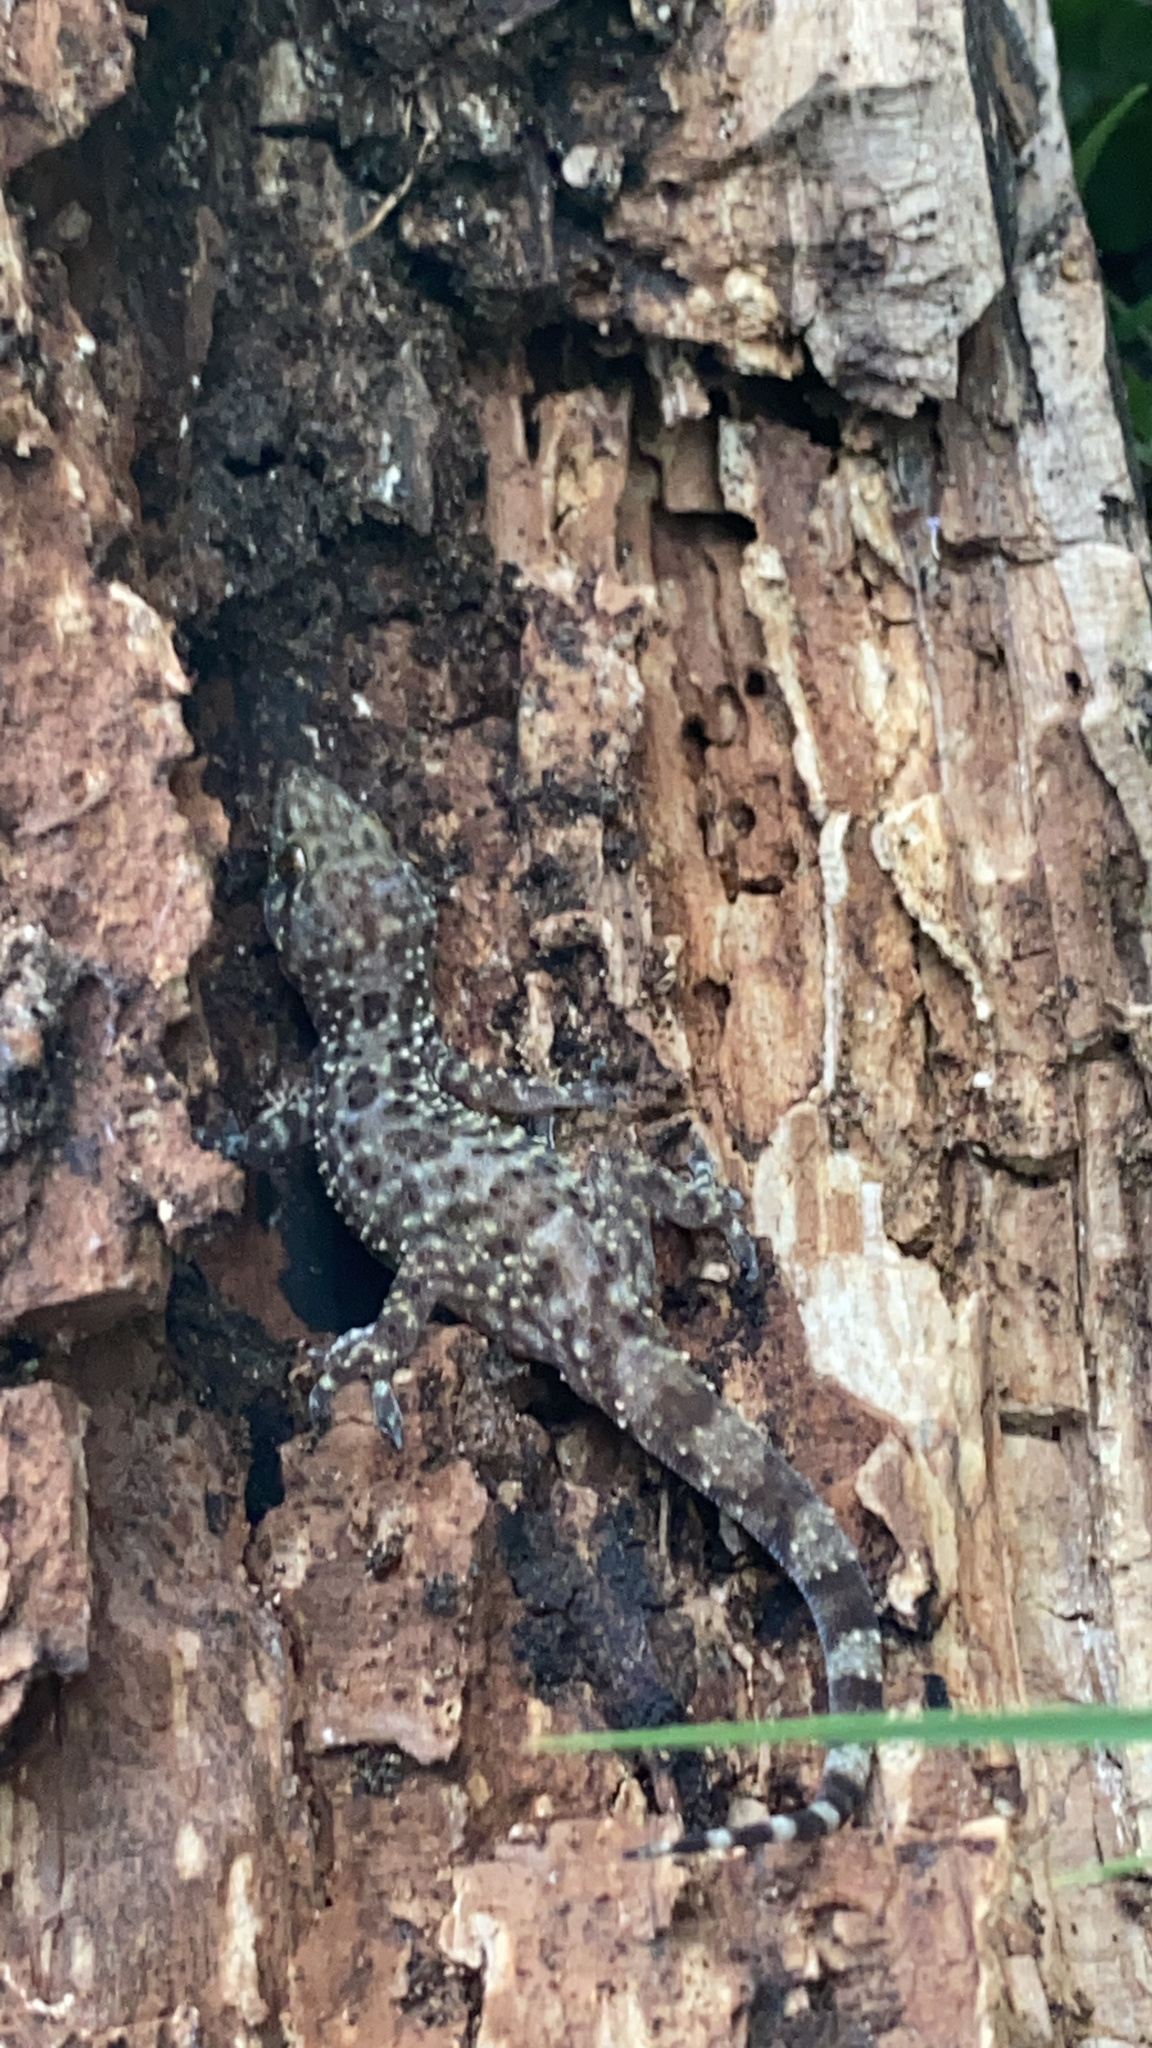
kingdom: Animalia
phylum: Chordata
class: Squamata
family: Gekkonidae
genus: Hemidactylus
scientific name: Hemidactylus turcicus
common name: Turkish gecko
